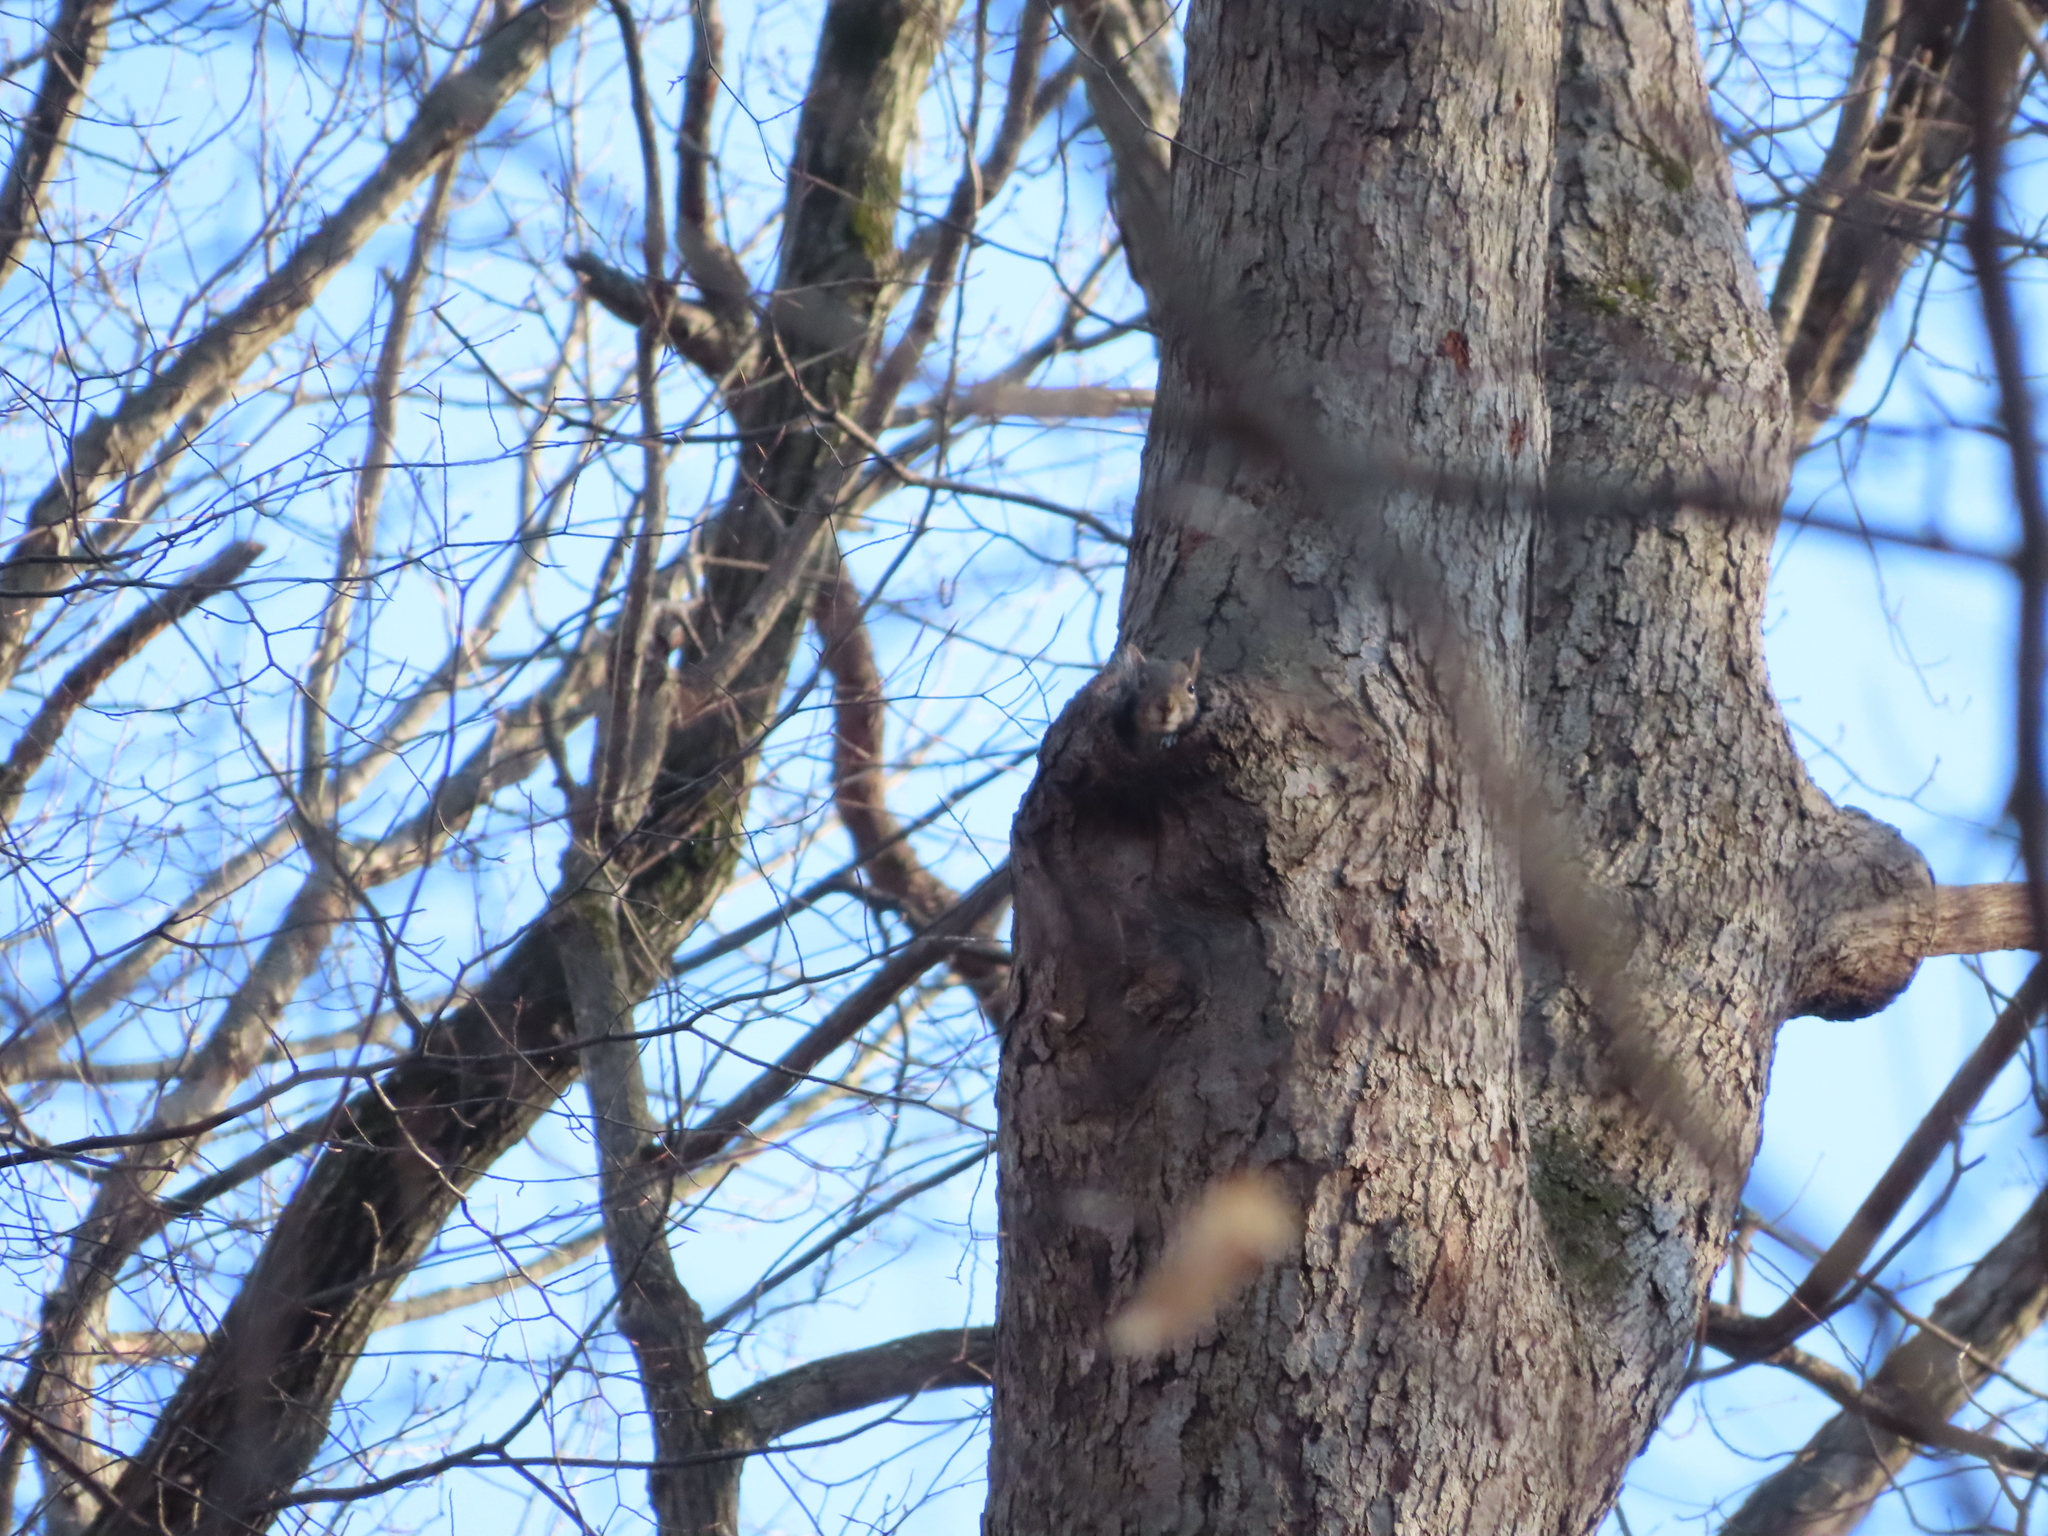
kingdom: Animalia
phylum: Chordata
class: Mammalia
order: Rodentia
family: Sciuridae
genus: Sciurus
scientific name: Sciurus carolinensis
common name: Eastern gray squirrel
